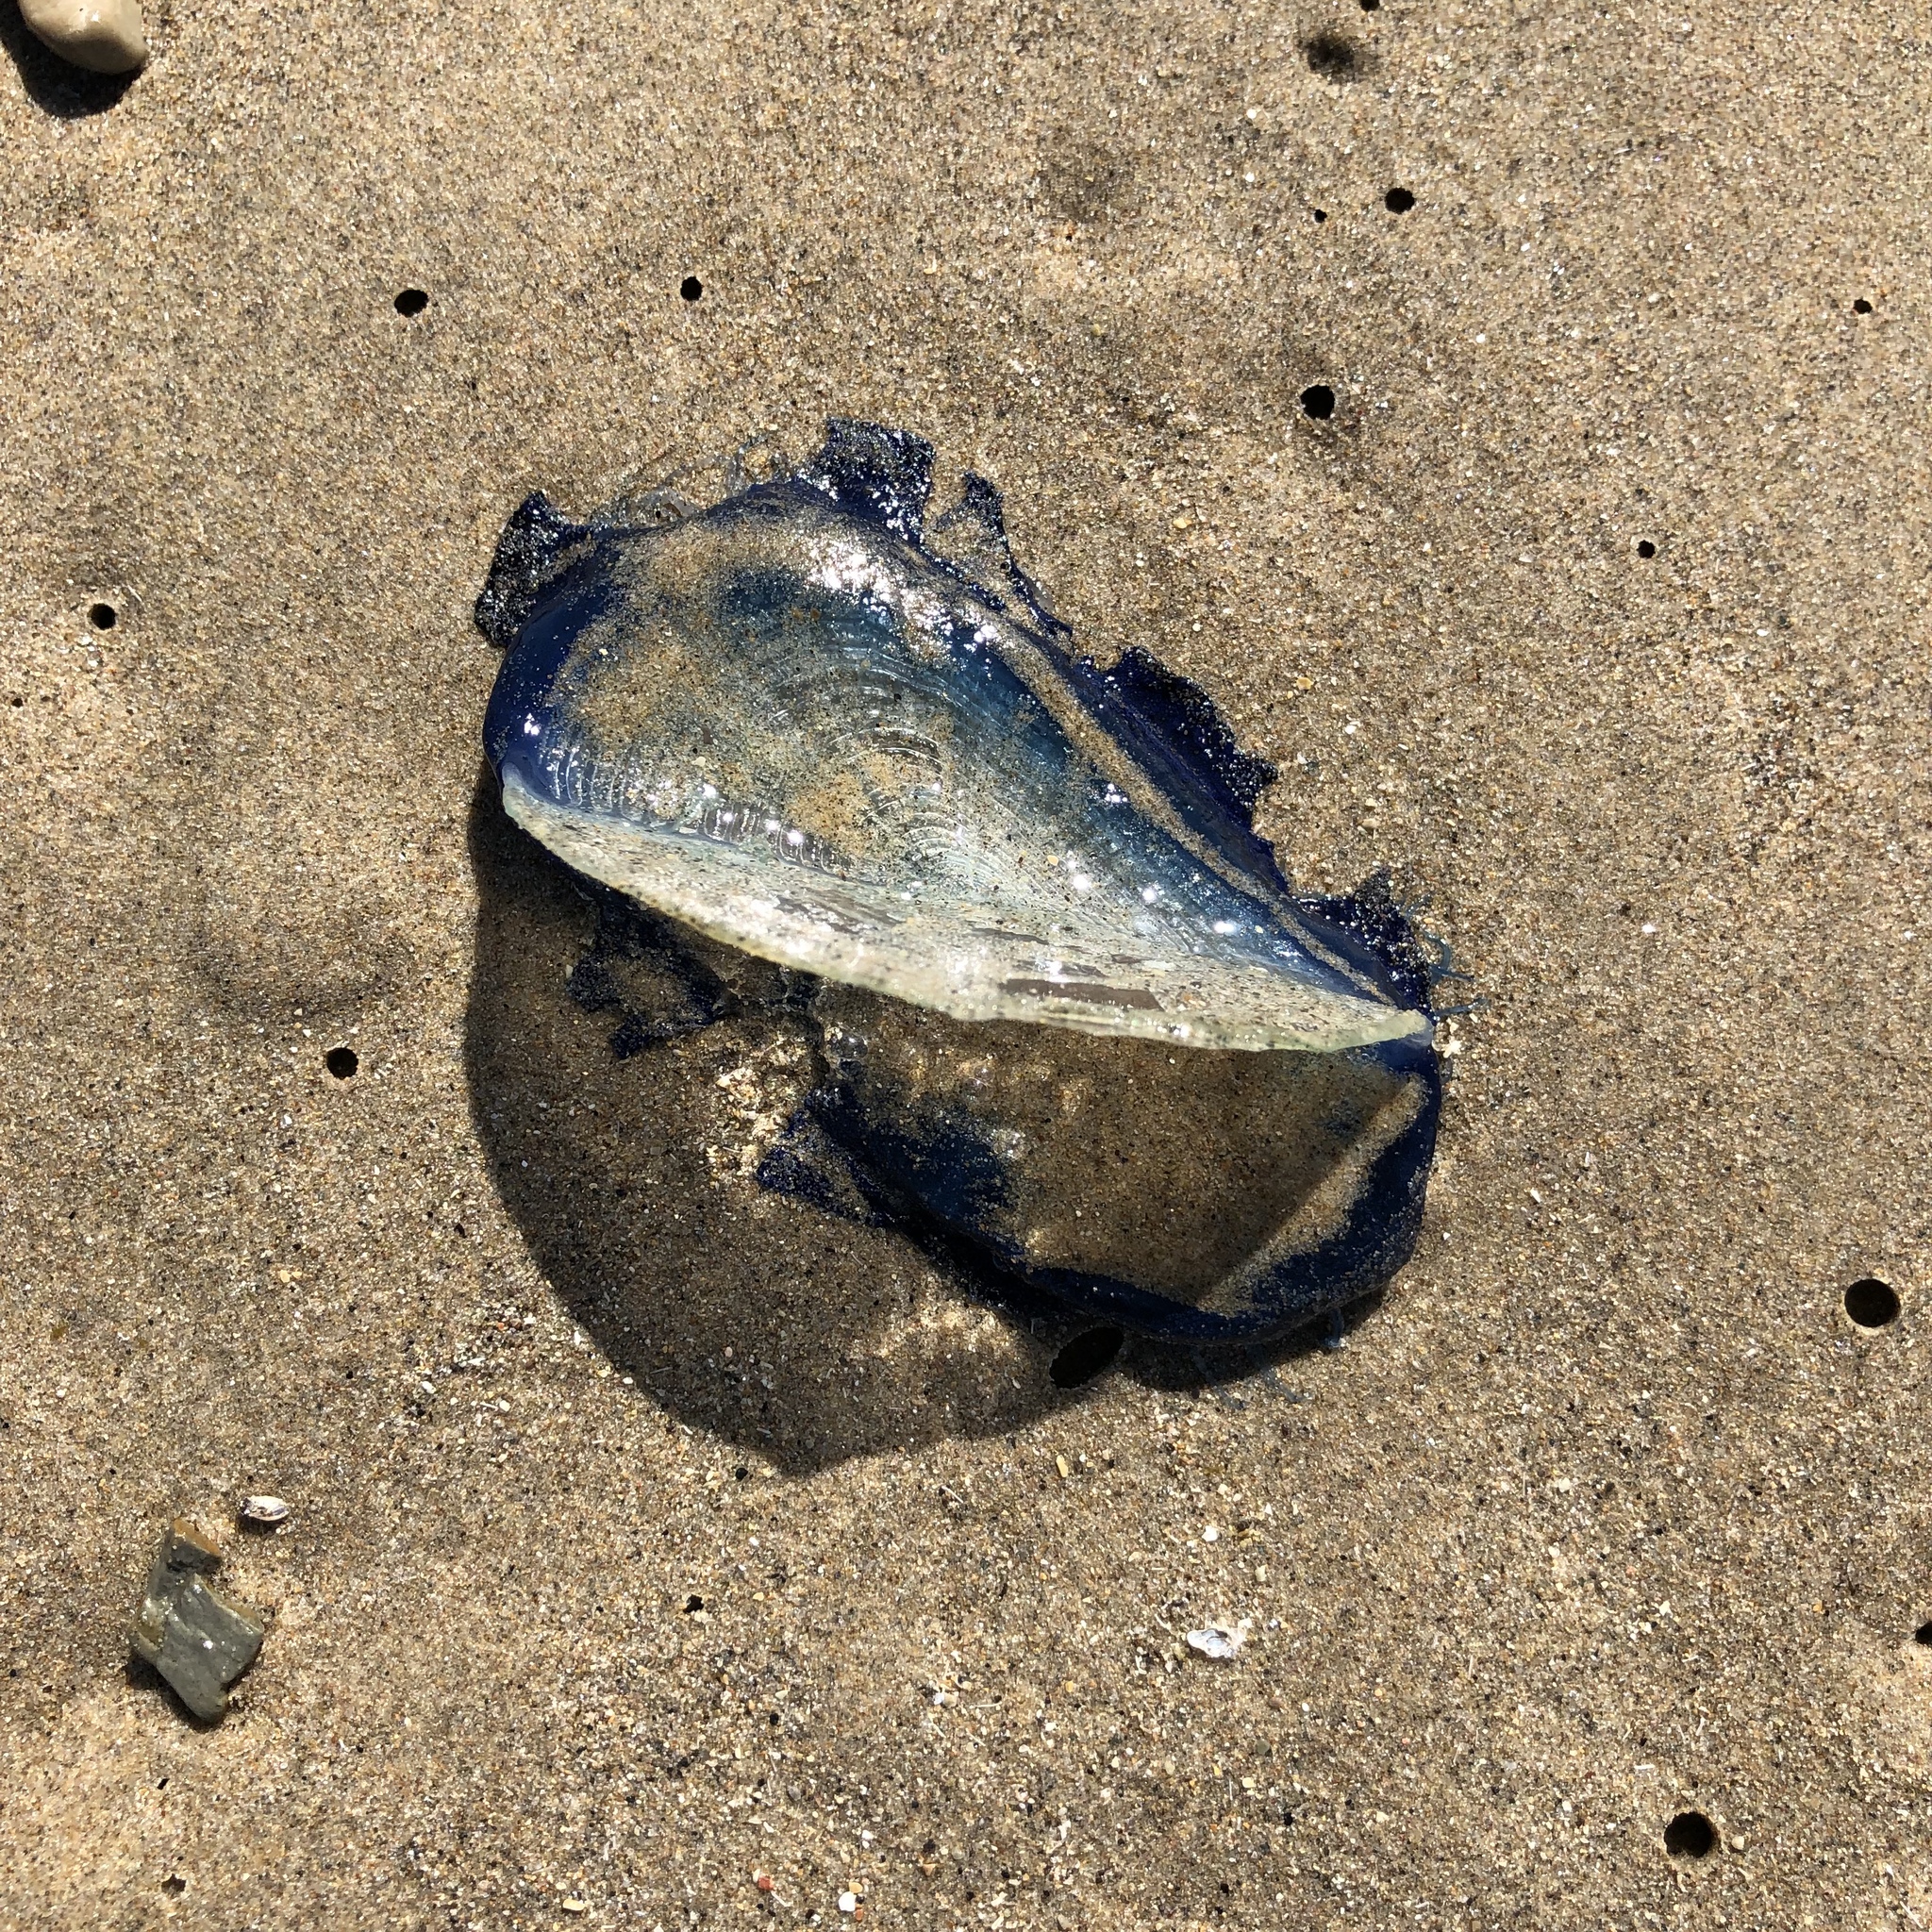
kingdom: Animalia
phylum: Cnidaria
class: Hydrozoa
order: Anthoathecata
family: Porpitidae
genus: Velella
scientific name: Velella velella
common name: By-the-wind-sailor
